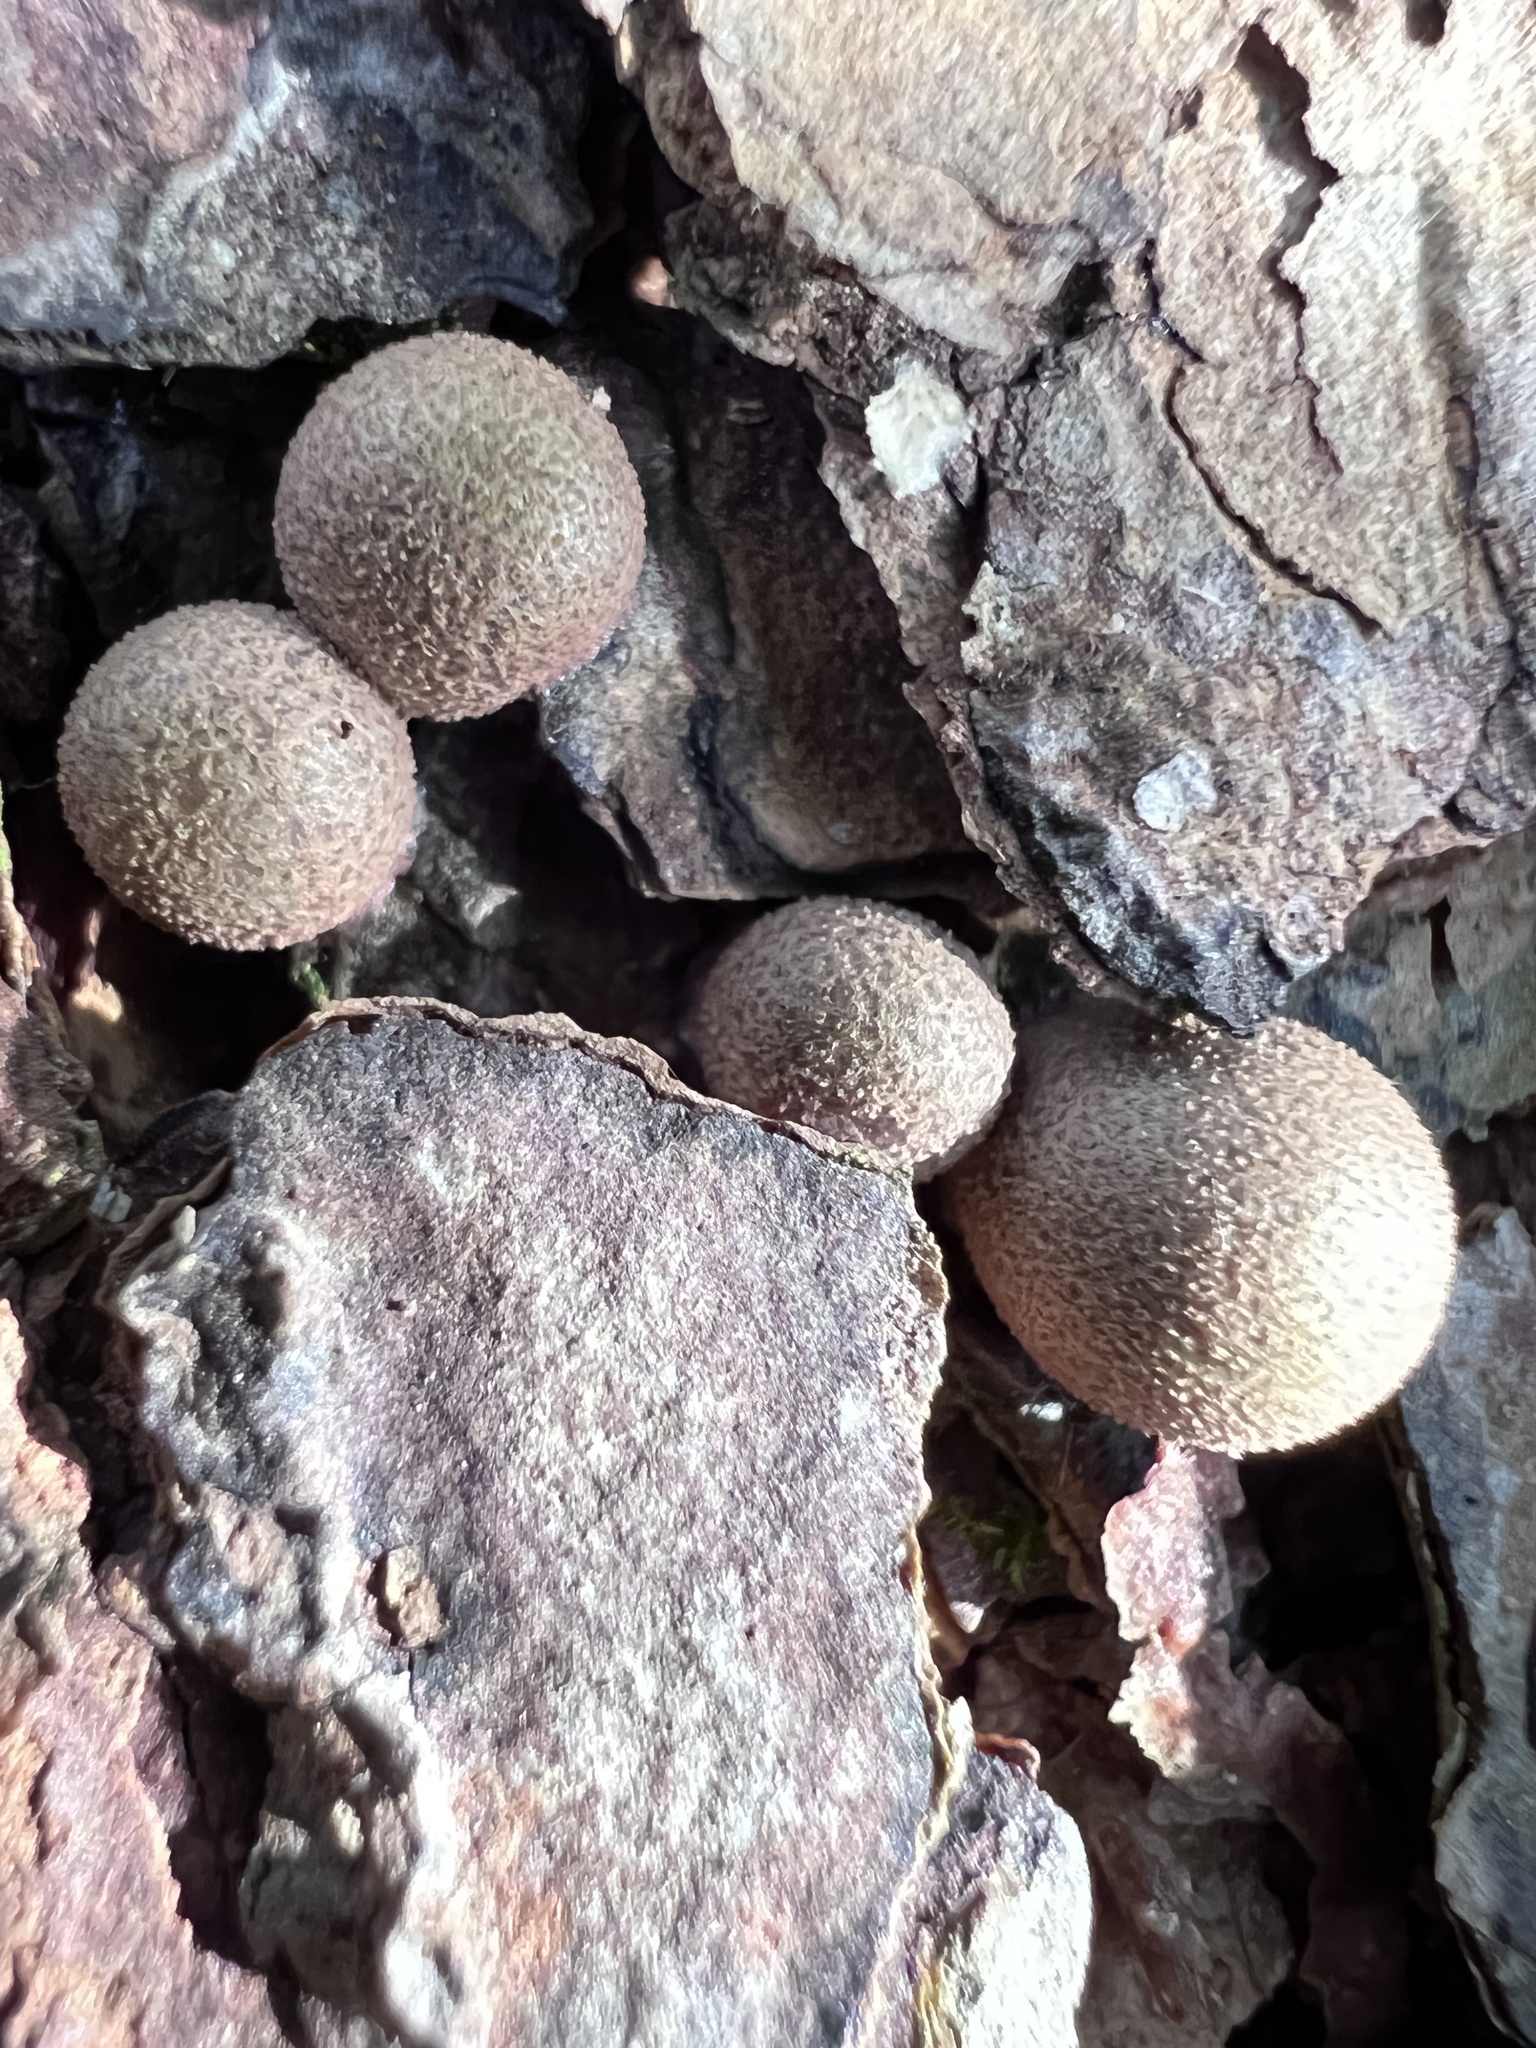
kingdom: Protozoa
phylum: Mycetozoa
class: Myxomycetes
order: Cribrariales
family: Tubiferaceae
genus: Lycogala
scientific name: Lycogala epidendrum
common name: Wolf's milk
